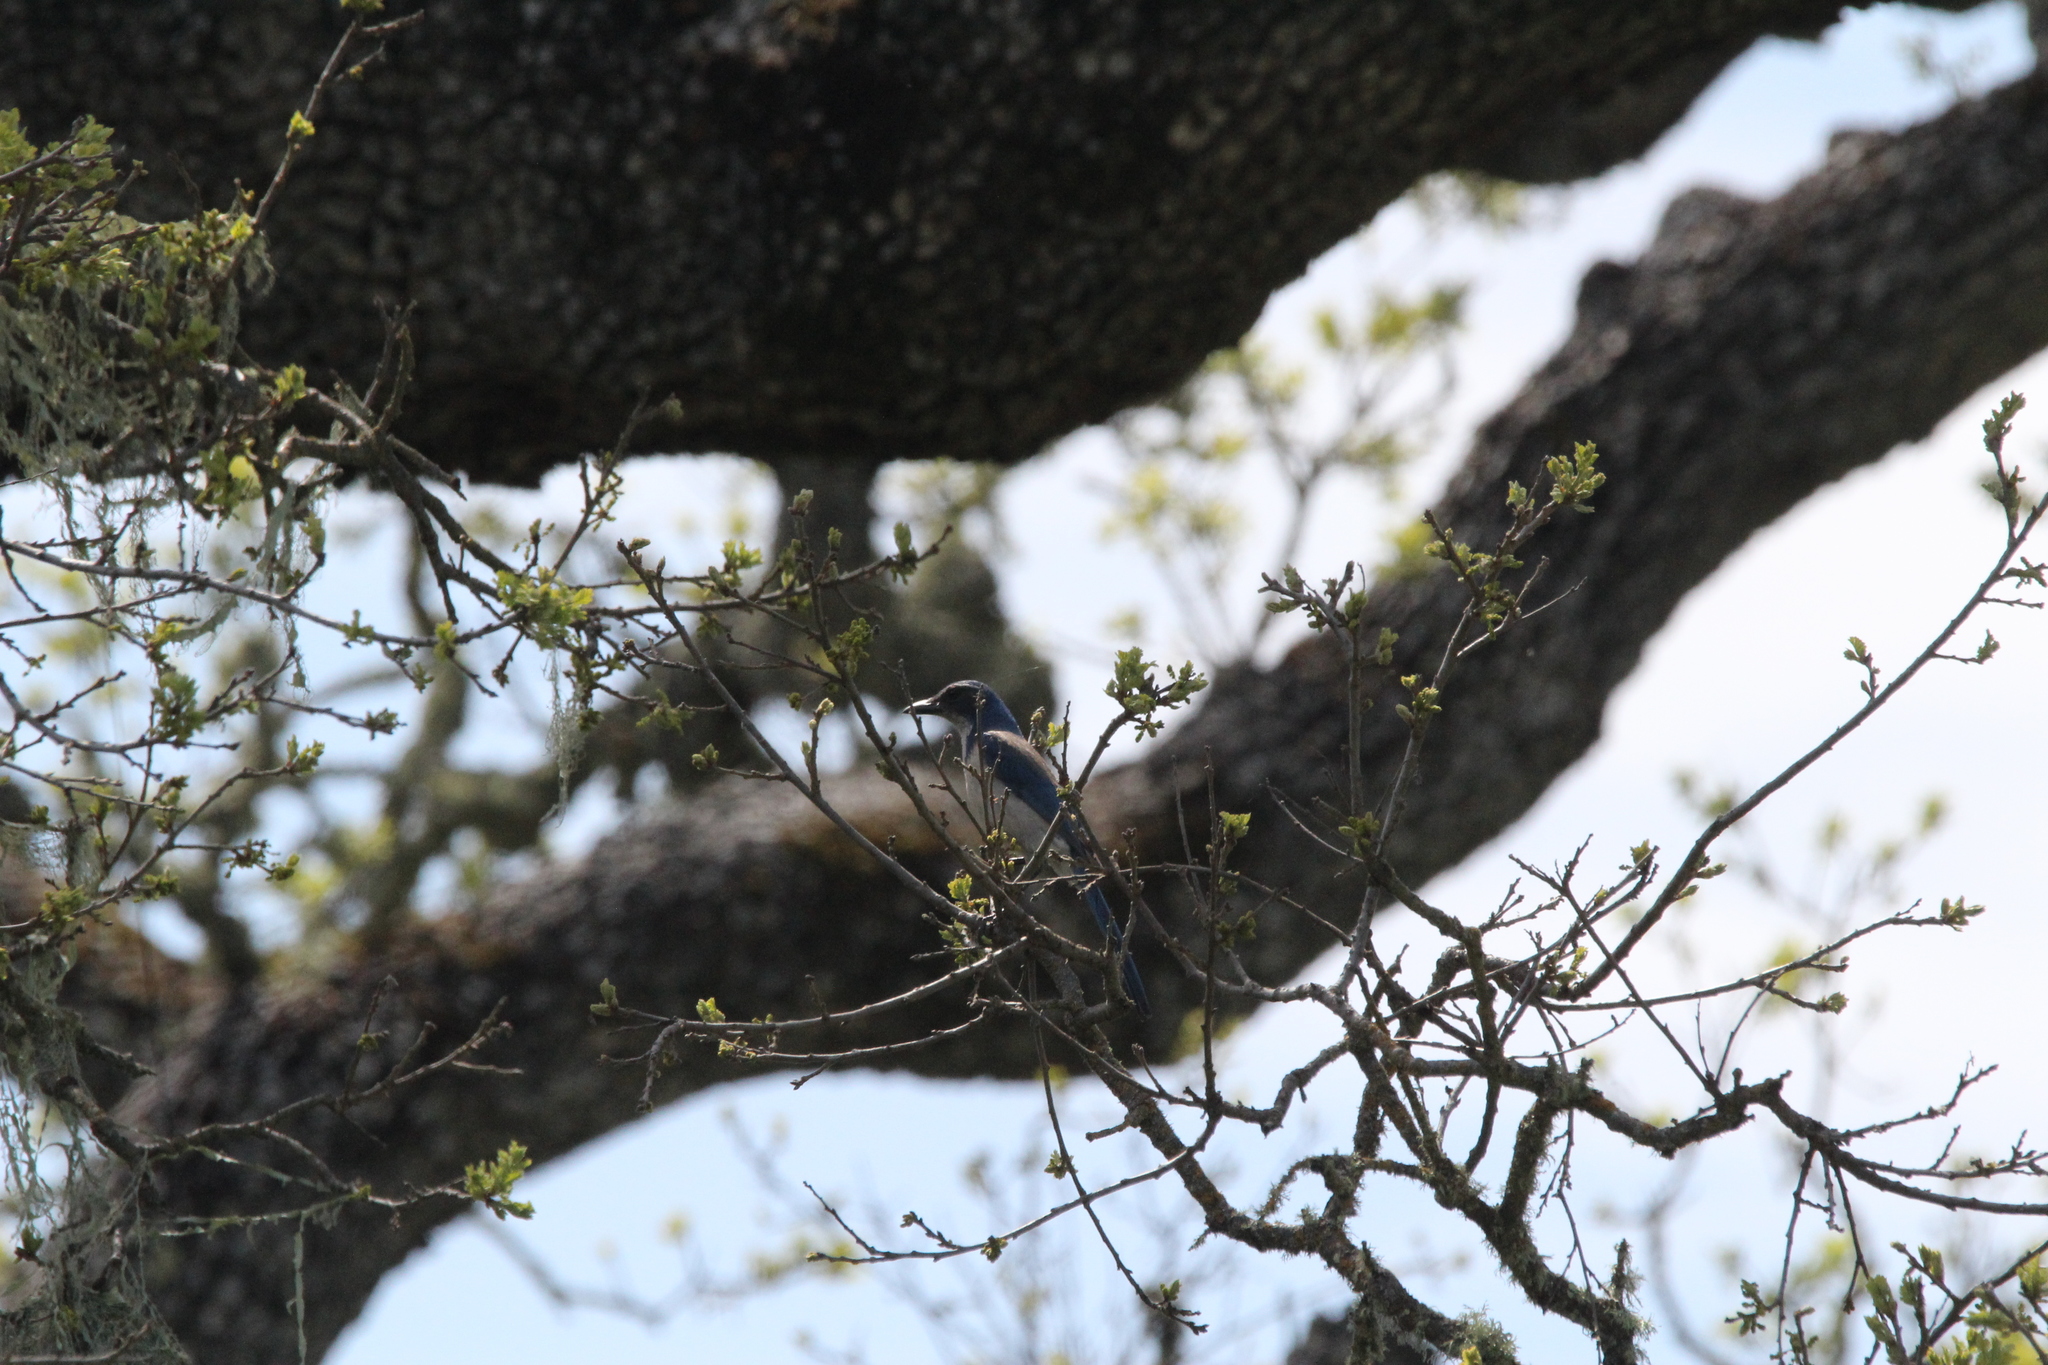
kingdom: Animalia
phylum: Chordata
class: Aves
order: Passeriformes
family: Corvidae
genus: Aphelocoma
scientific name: Aphelocoma californica
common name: California scrub-jay
